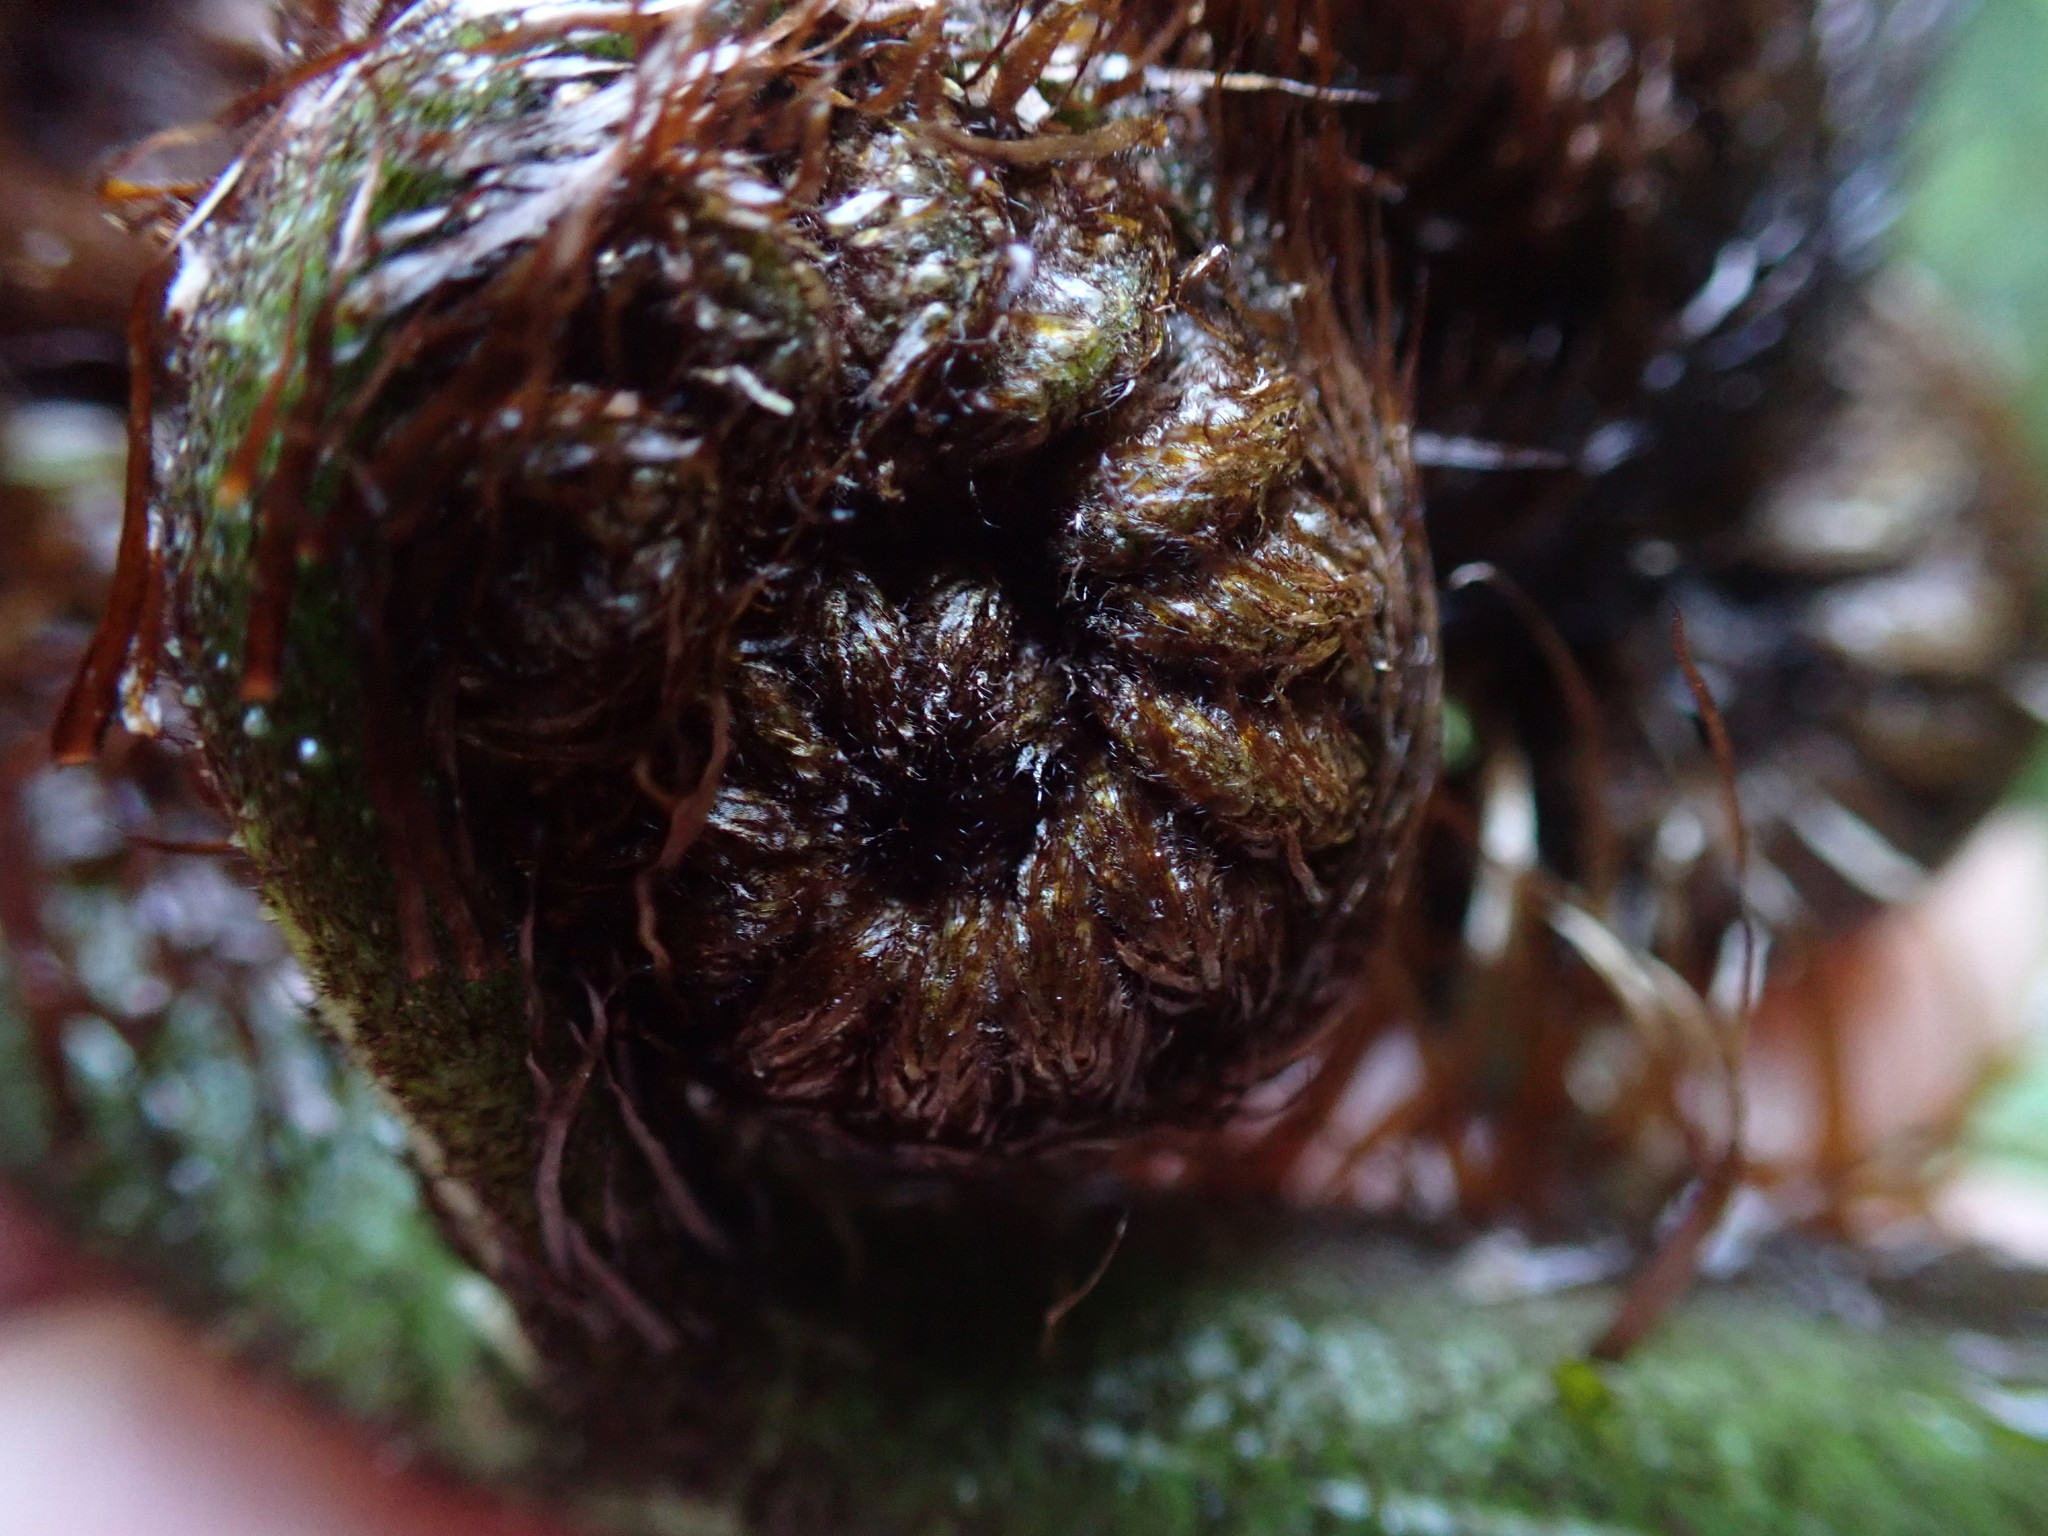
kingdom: Plantae
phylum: Tracheophyta
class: Polypodiopsida
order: Cyatheales
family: Cyatheaceae
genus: Sphaeropteris
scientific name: Sphaeropteris medullaris
